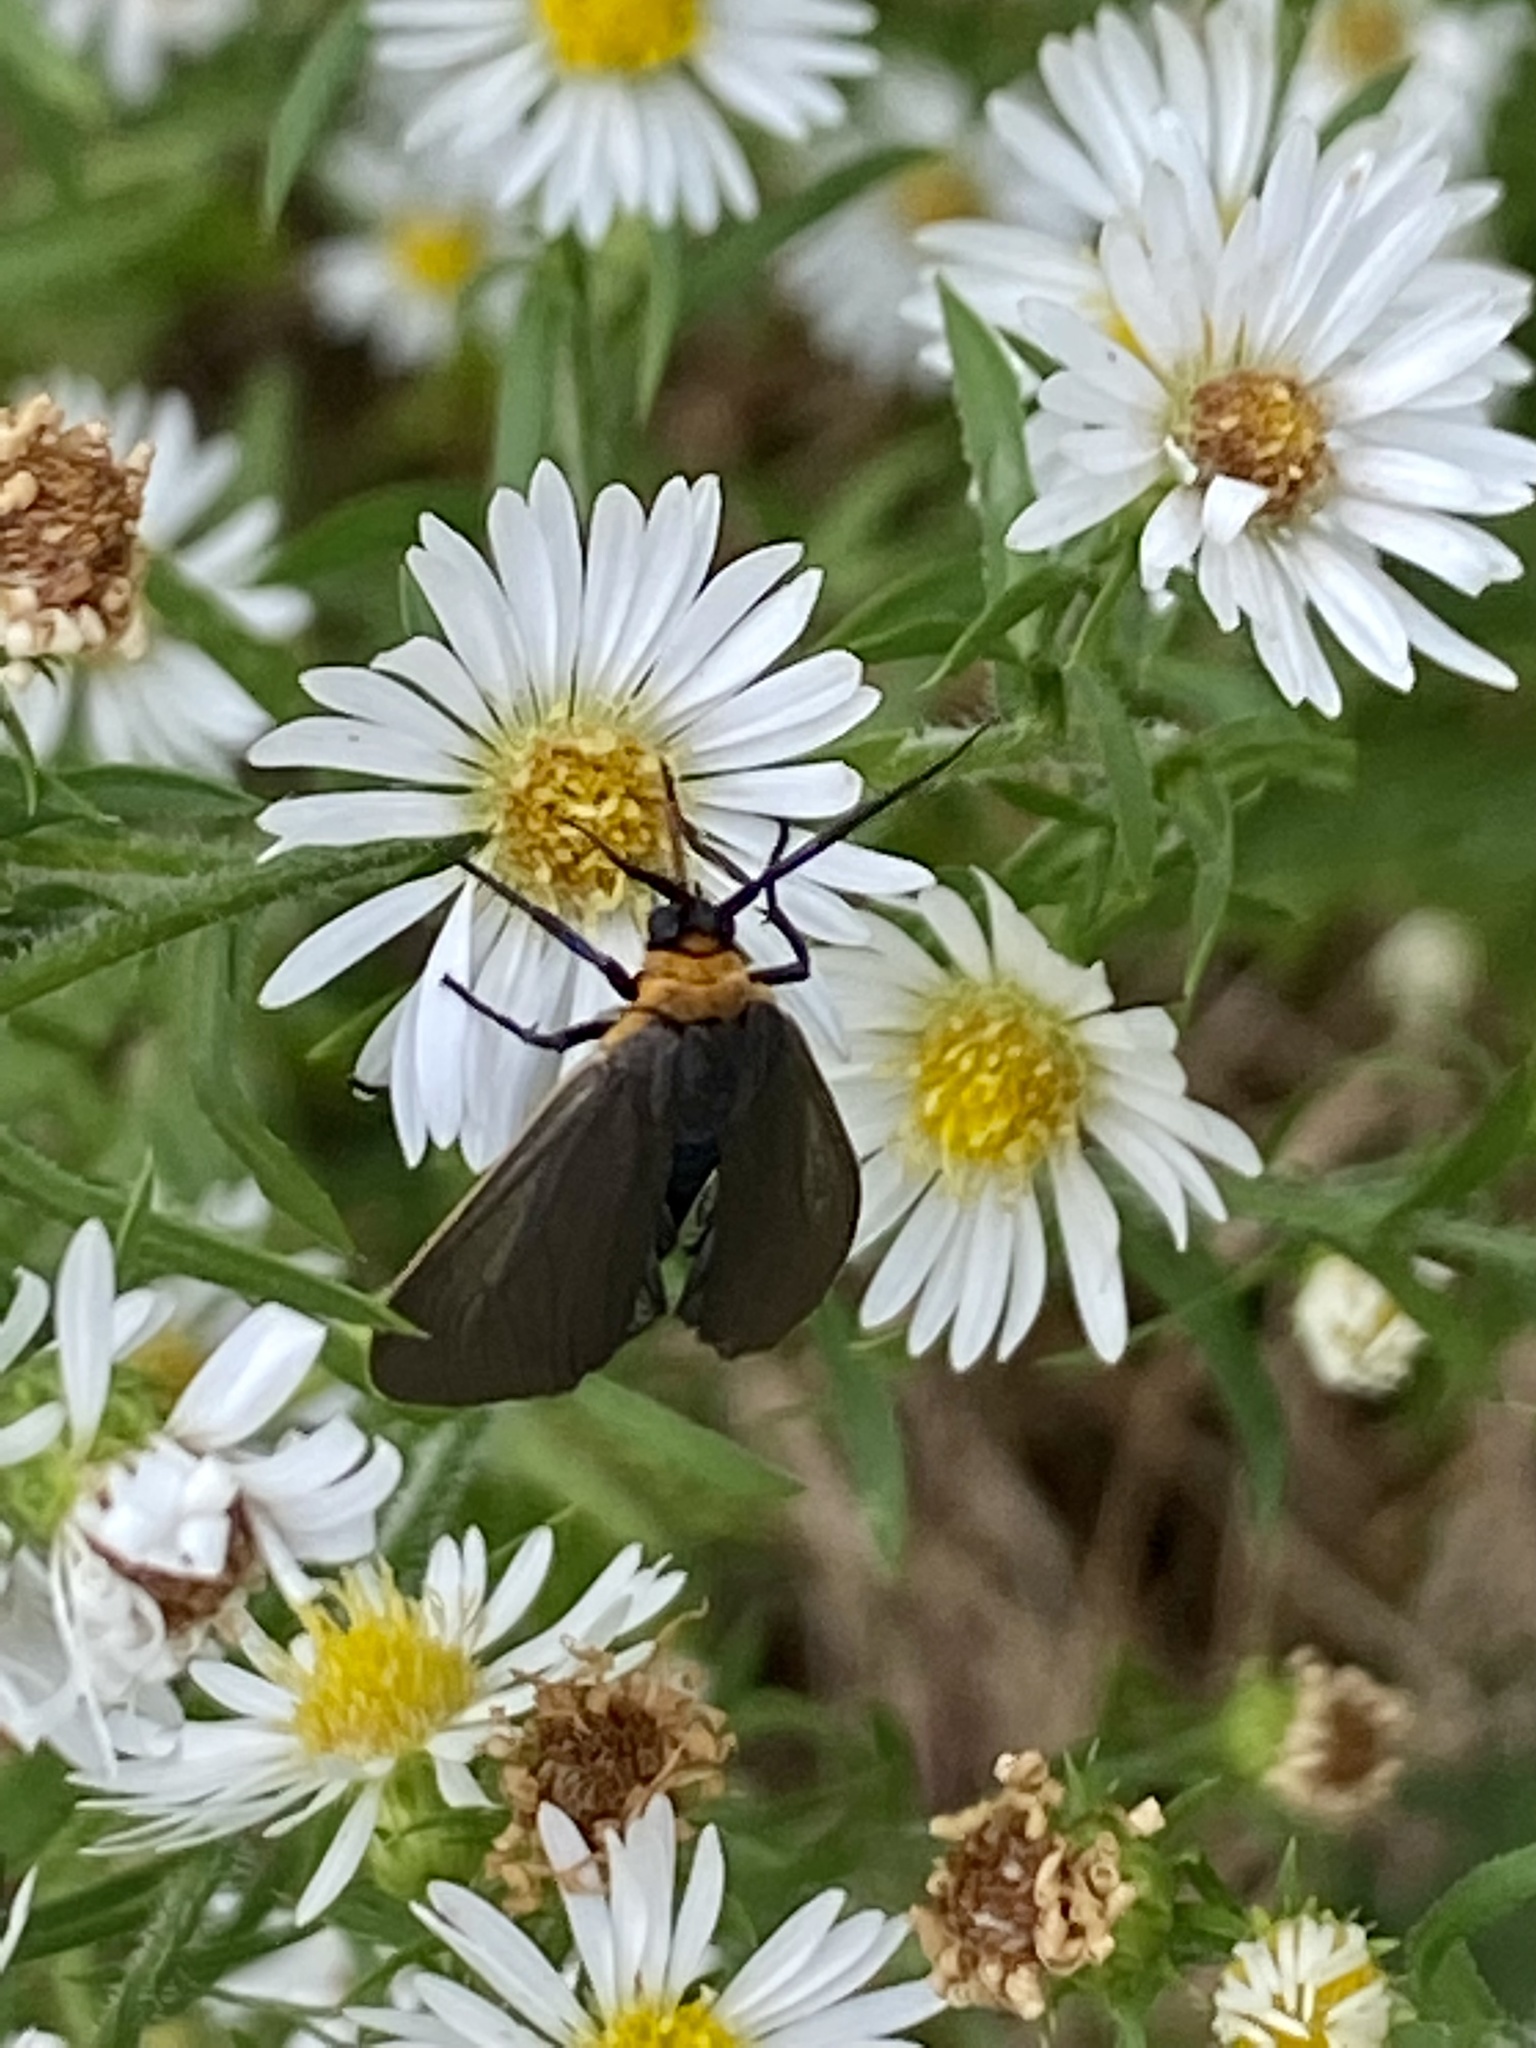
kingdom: Animalia
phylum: Arthropoda
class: Insecta
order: Lepidoptera
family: Erebidae
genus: Cisseps
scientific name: Cisseps fulvicollis
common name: Yellow-collared scape moth
